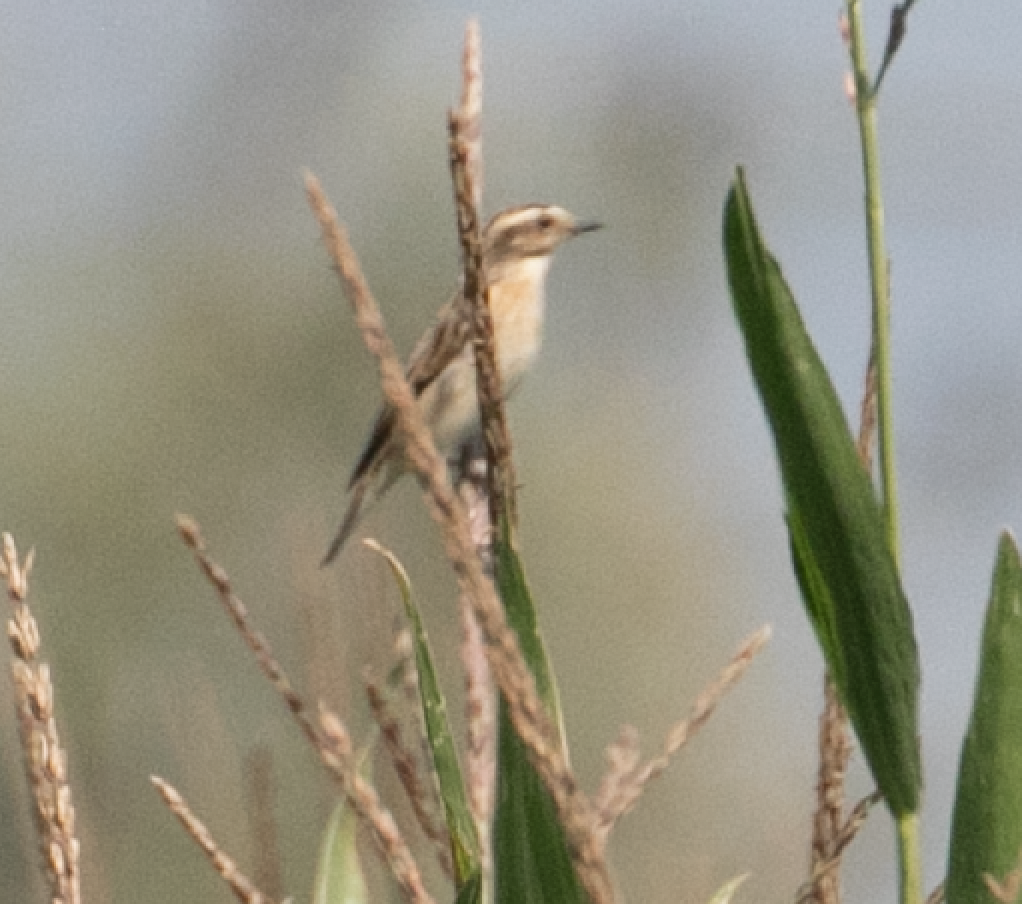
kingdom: Animalia
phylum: Chordata
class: Aves
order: Passeriformes
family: Muscicapidae
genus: Saxicola
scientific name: Saxicola rubetra
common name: Whinchat
